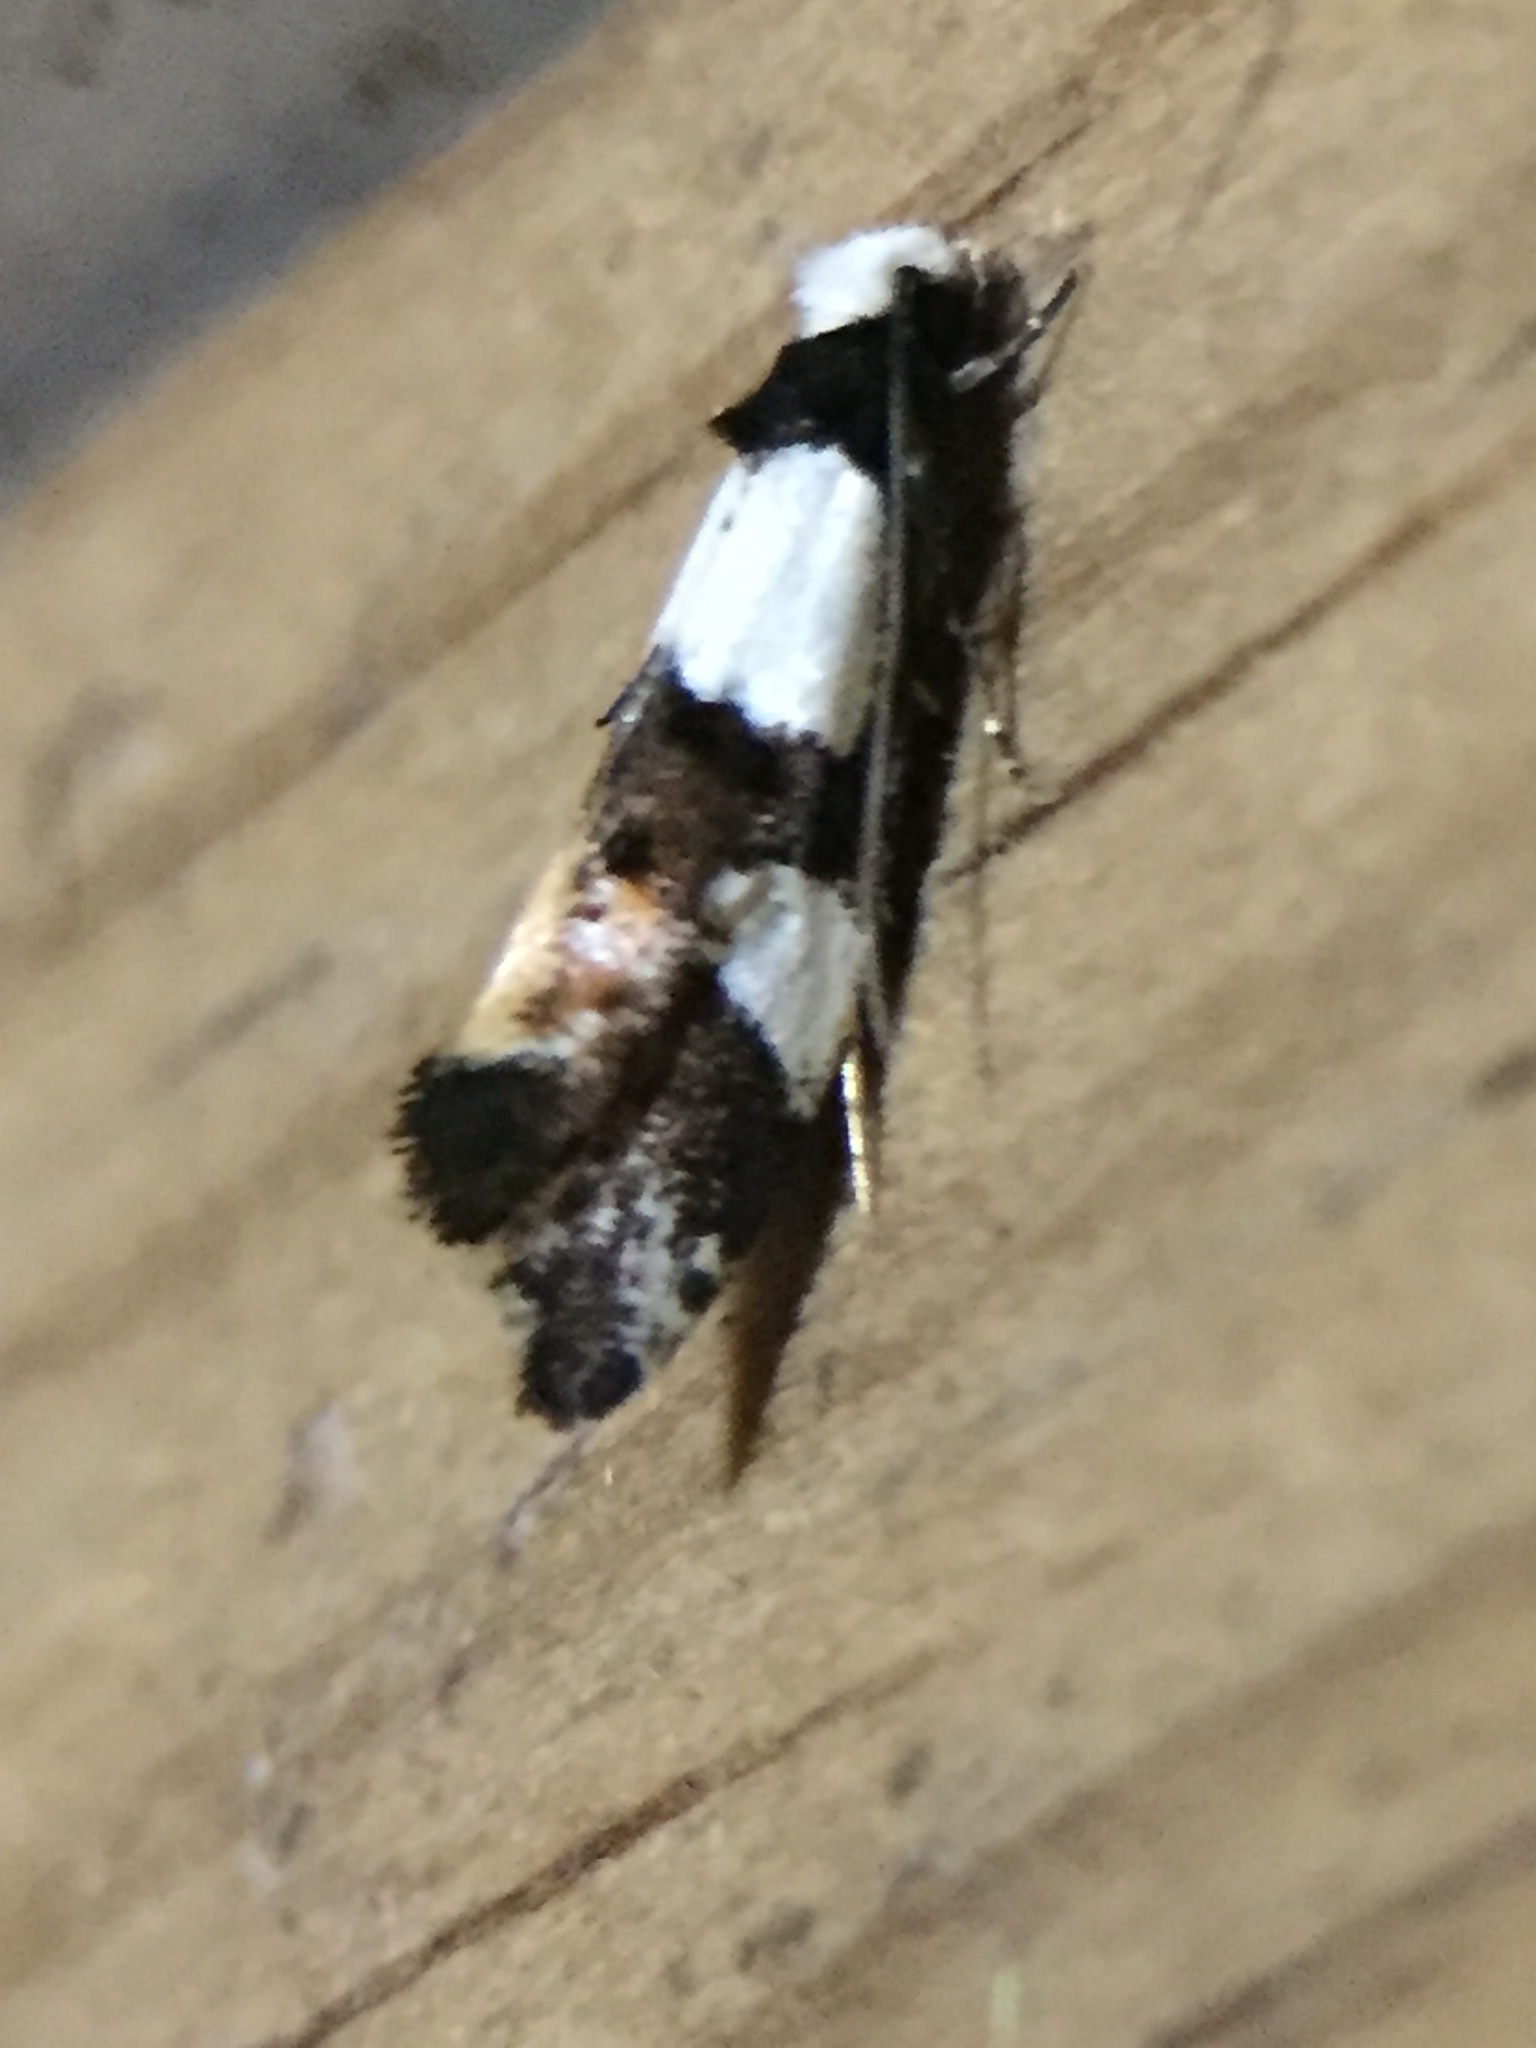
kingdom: Animalia
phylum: Arthropoda
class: Insecta
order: Lepidoptera
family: Tineidae
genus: Monopis
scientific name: Monopis icterogastra
